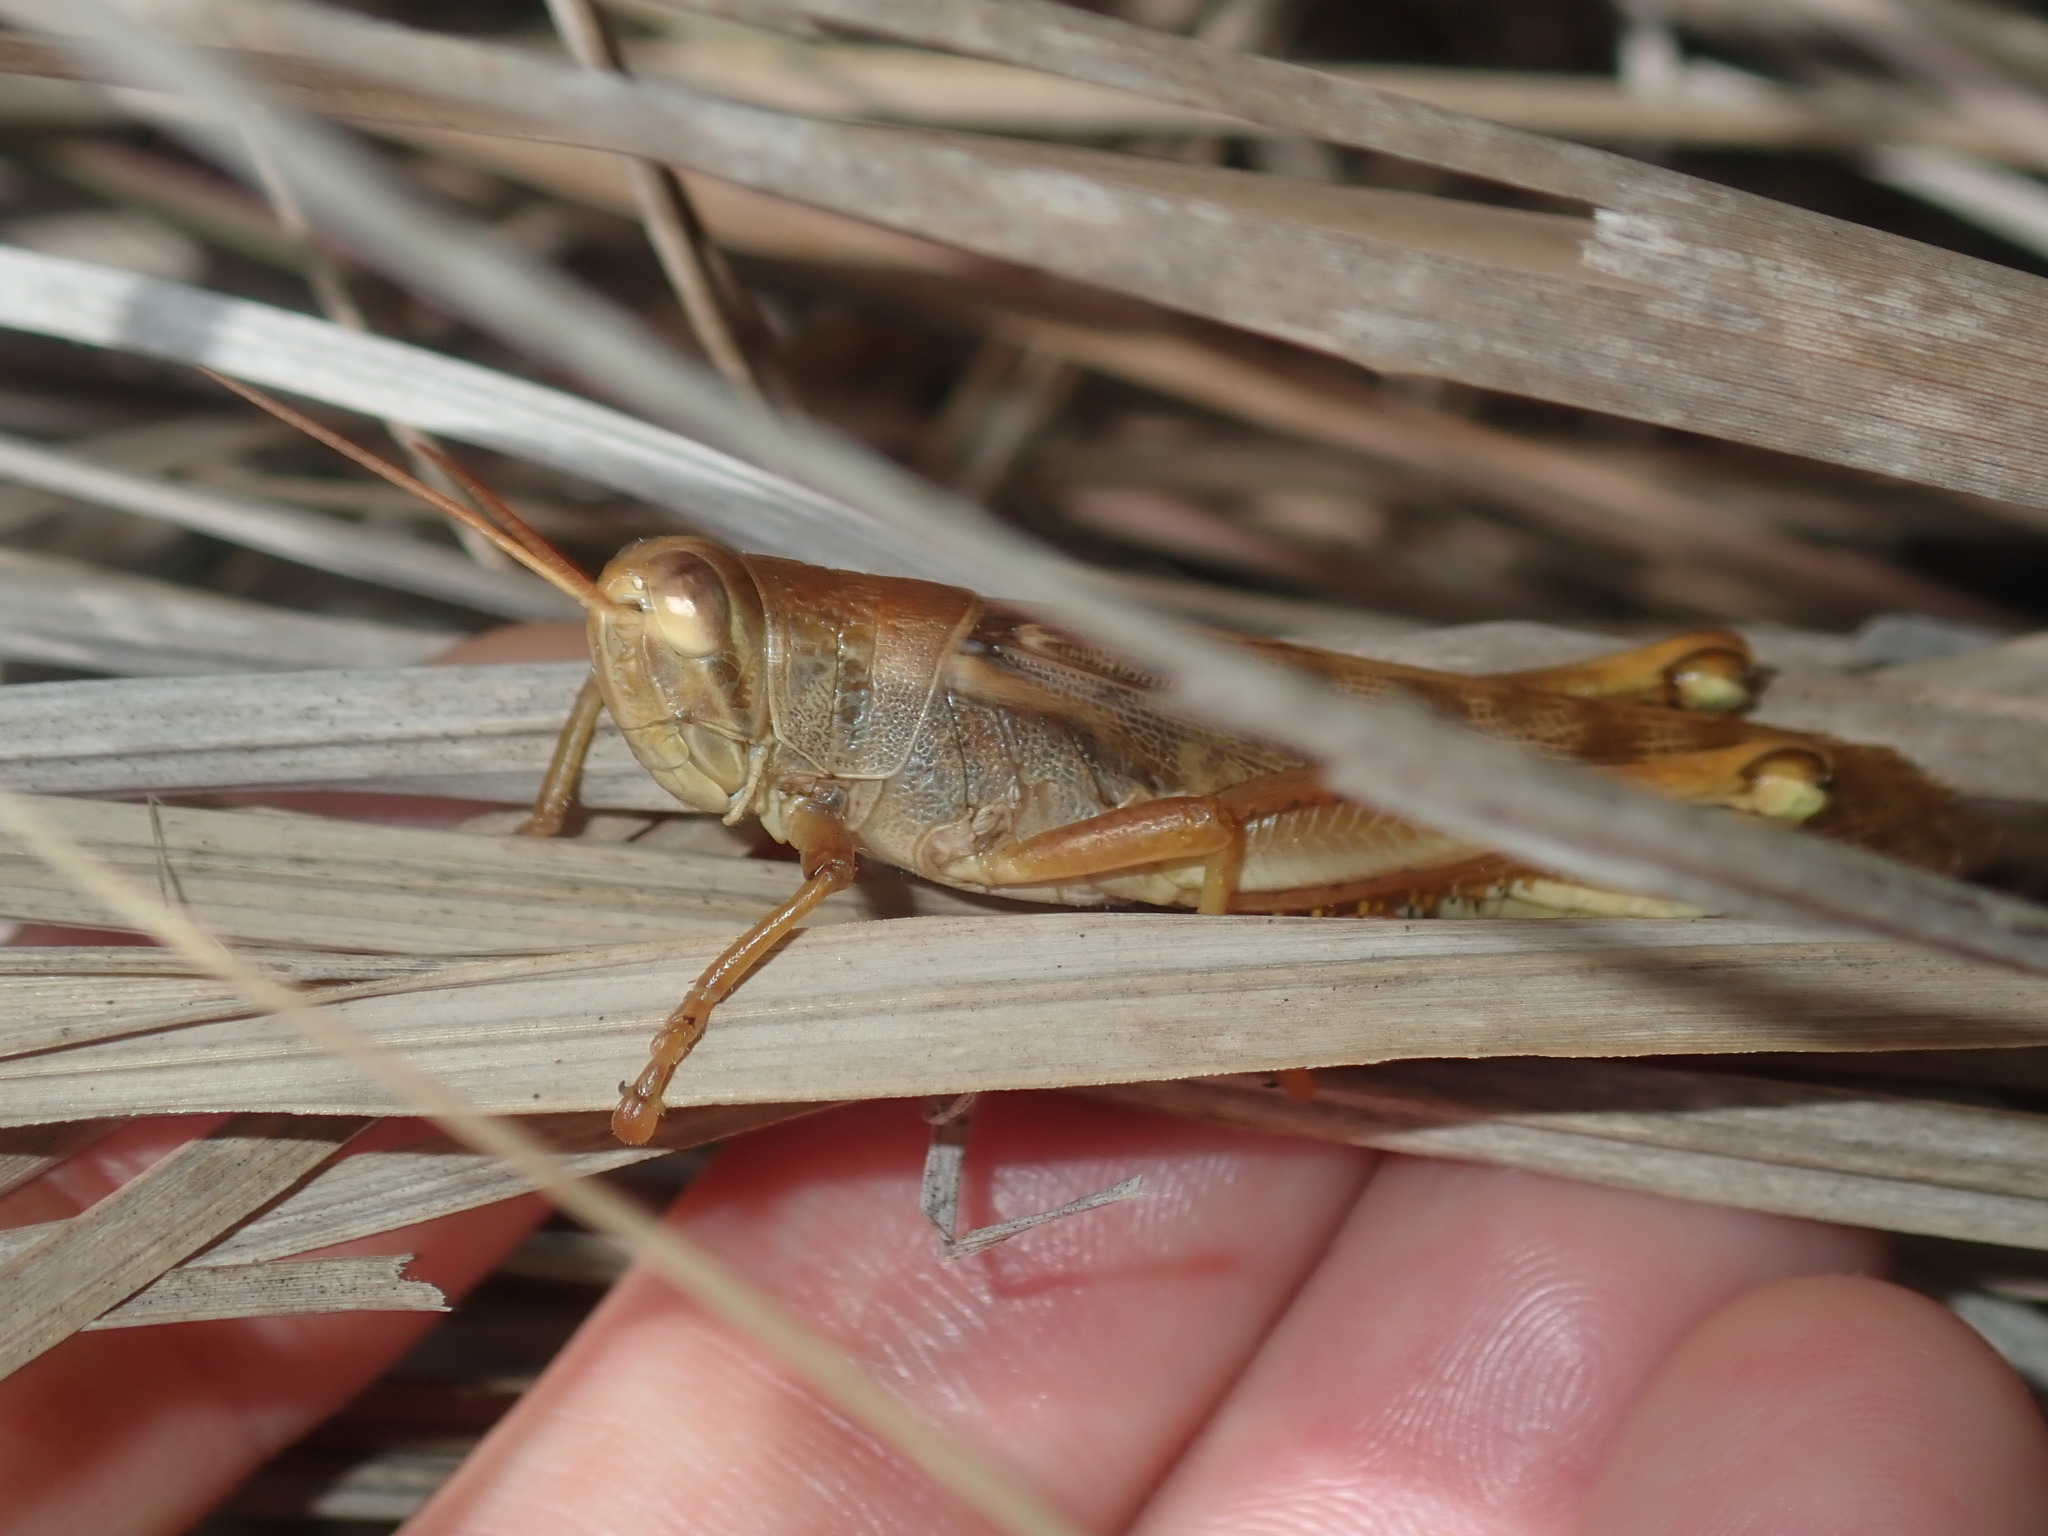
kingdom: Animalia
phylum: Arthropoda
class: Insecta
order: Orthoptera
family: Acrididae
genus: Austracris
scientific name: Austracris proxima
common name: Confusing spur-throated locust
